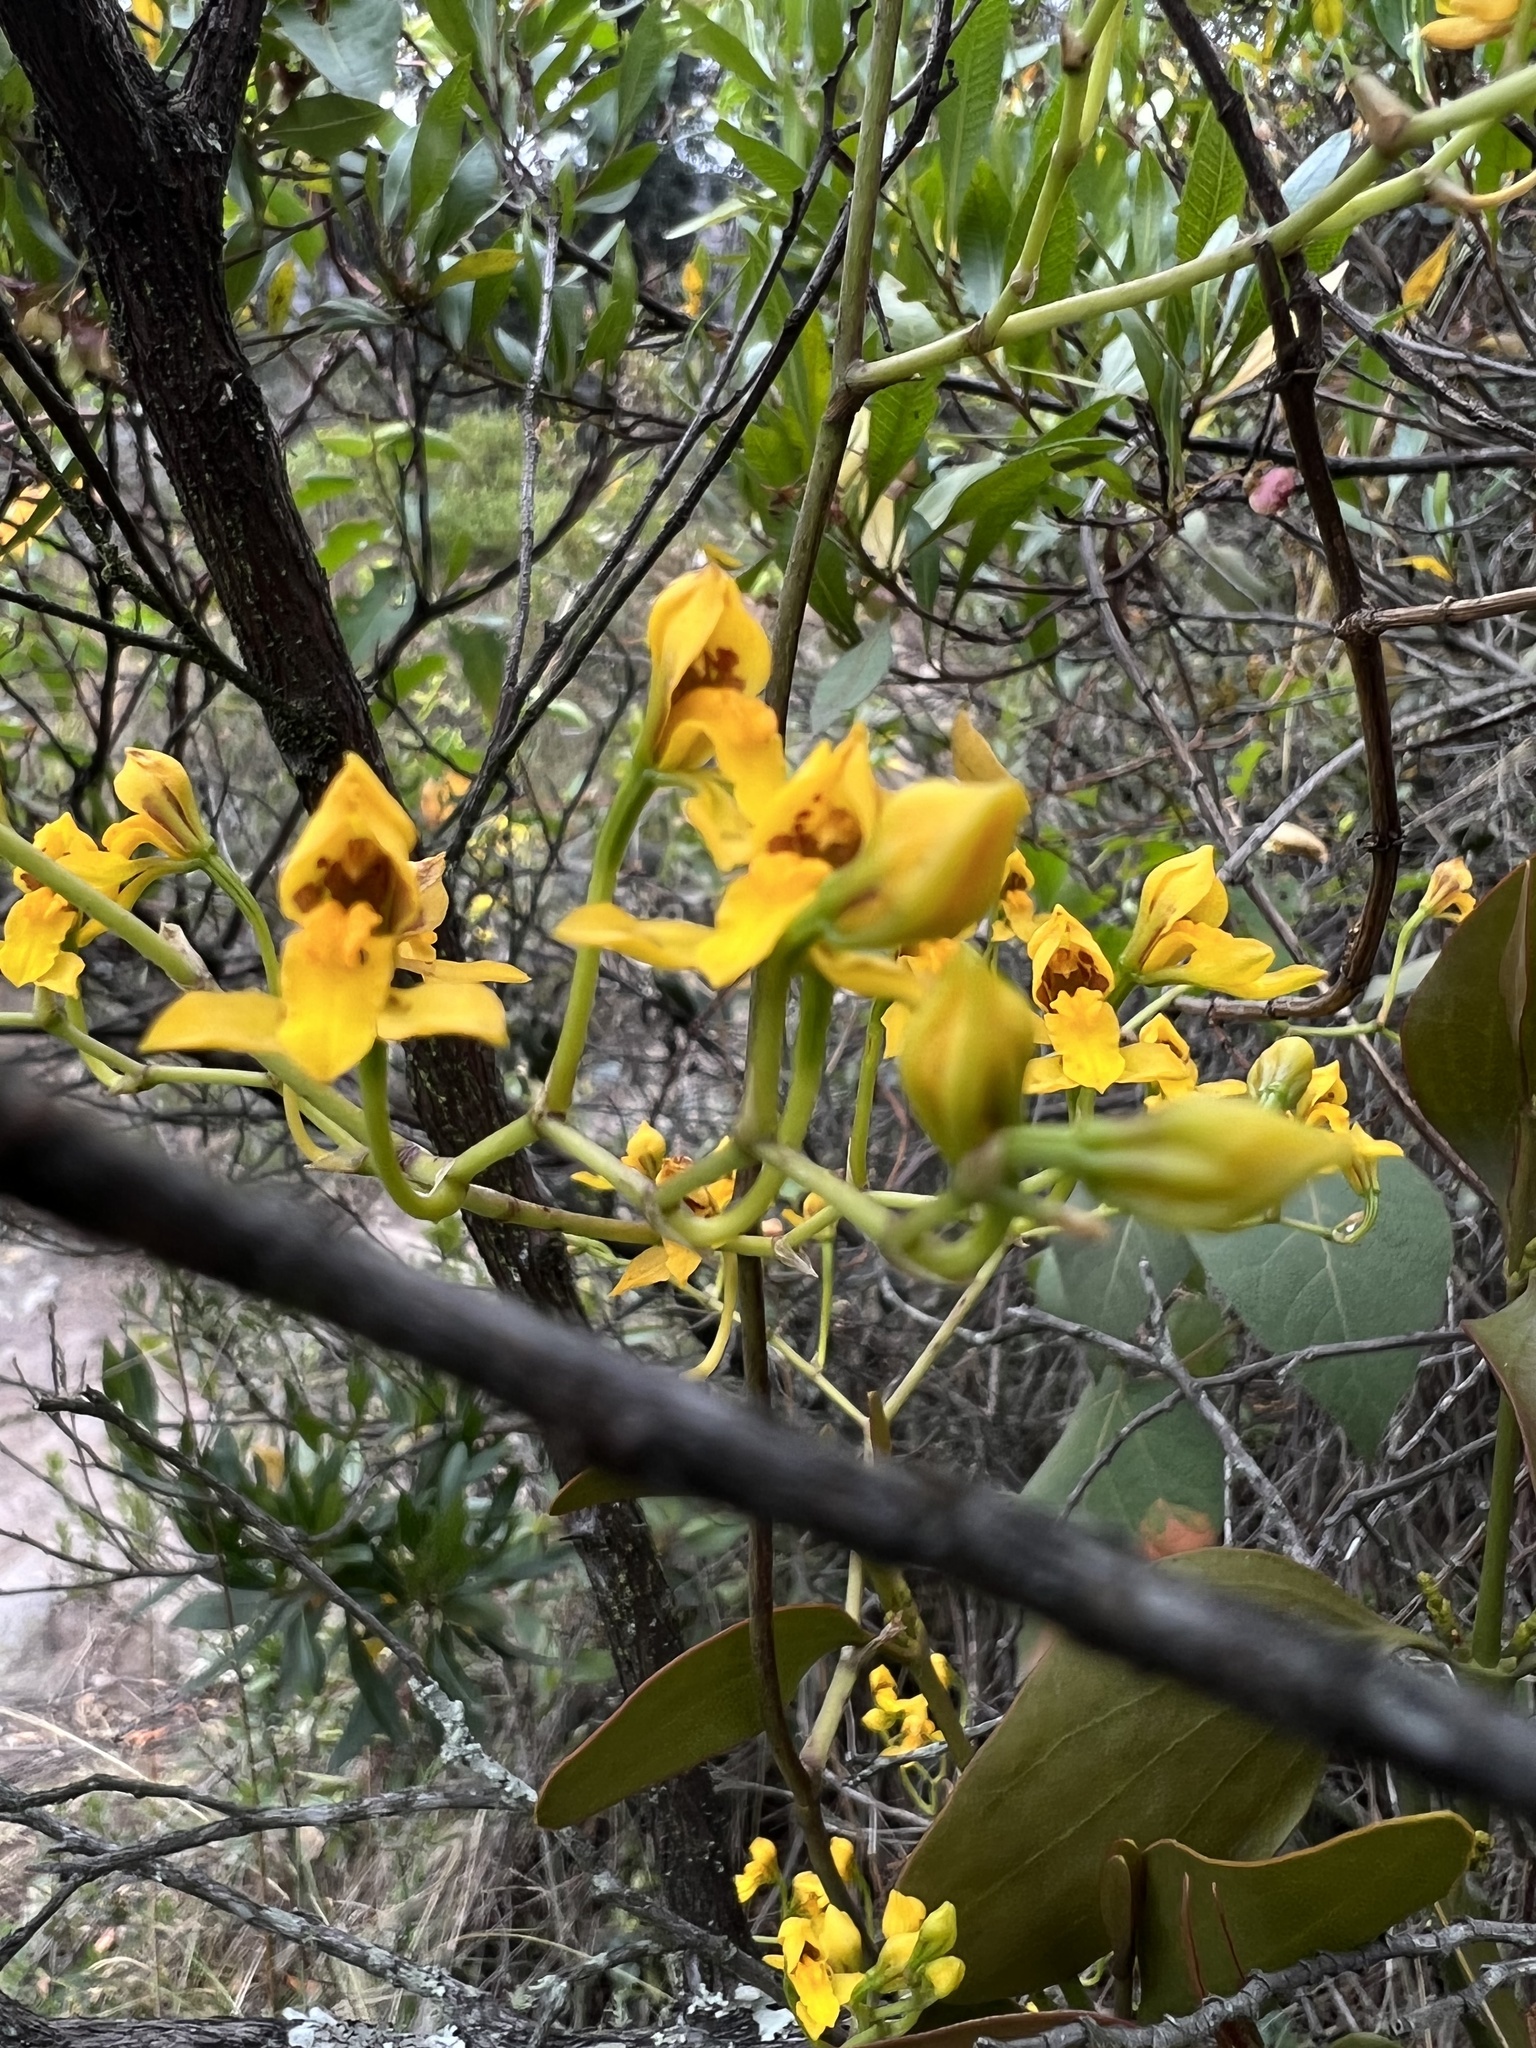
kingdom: Plantae
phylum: Tracheophyta
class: Liliopsida
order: Asparagales
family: Orchidaceae
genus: Cyrtochilum
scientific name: Cyrtochilum densiflorum
